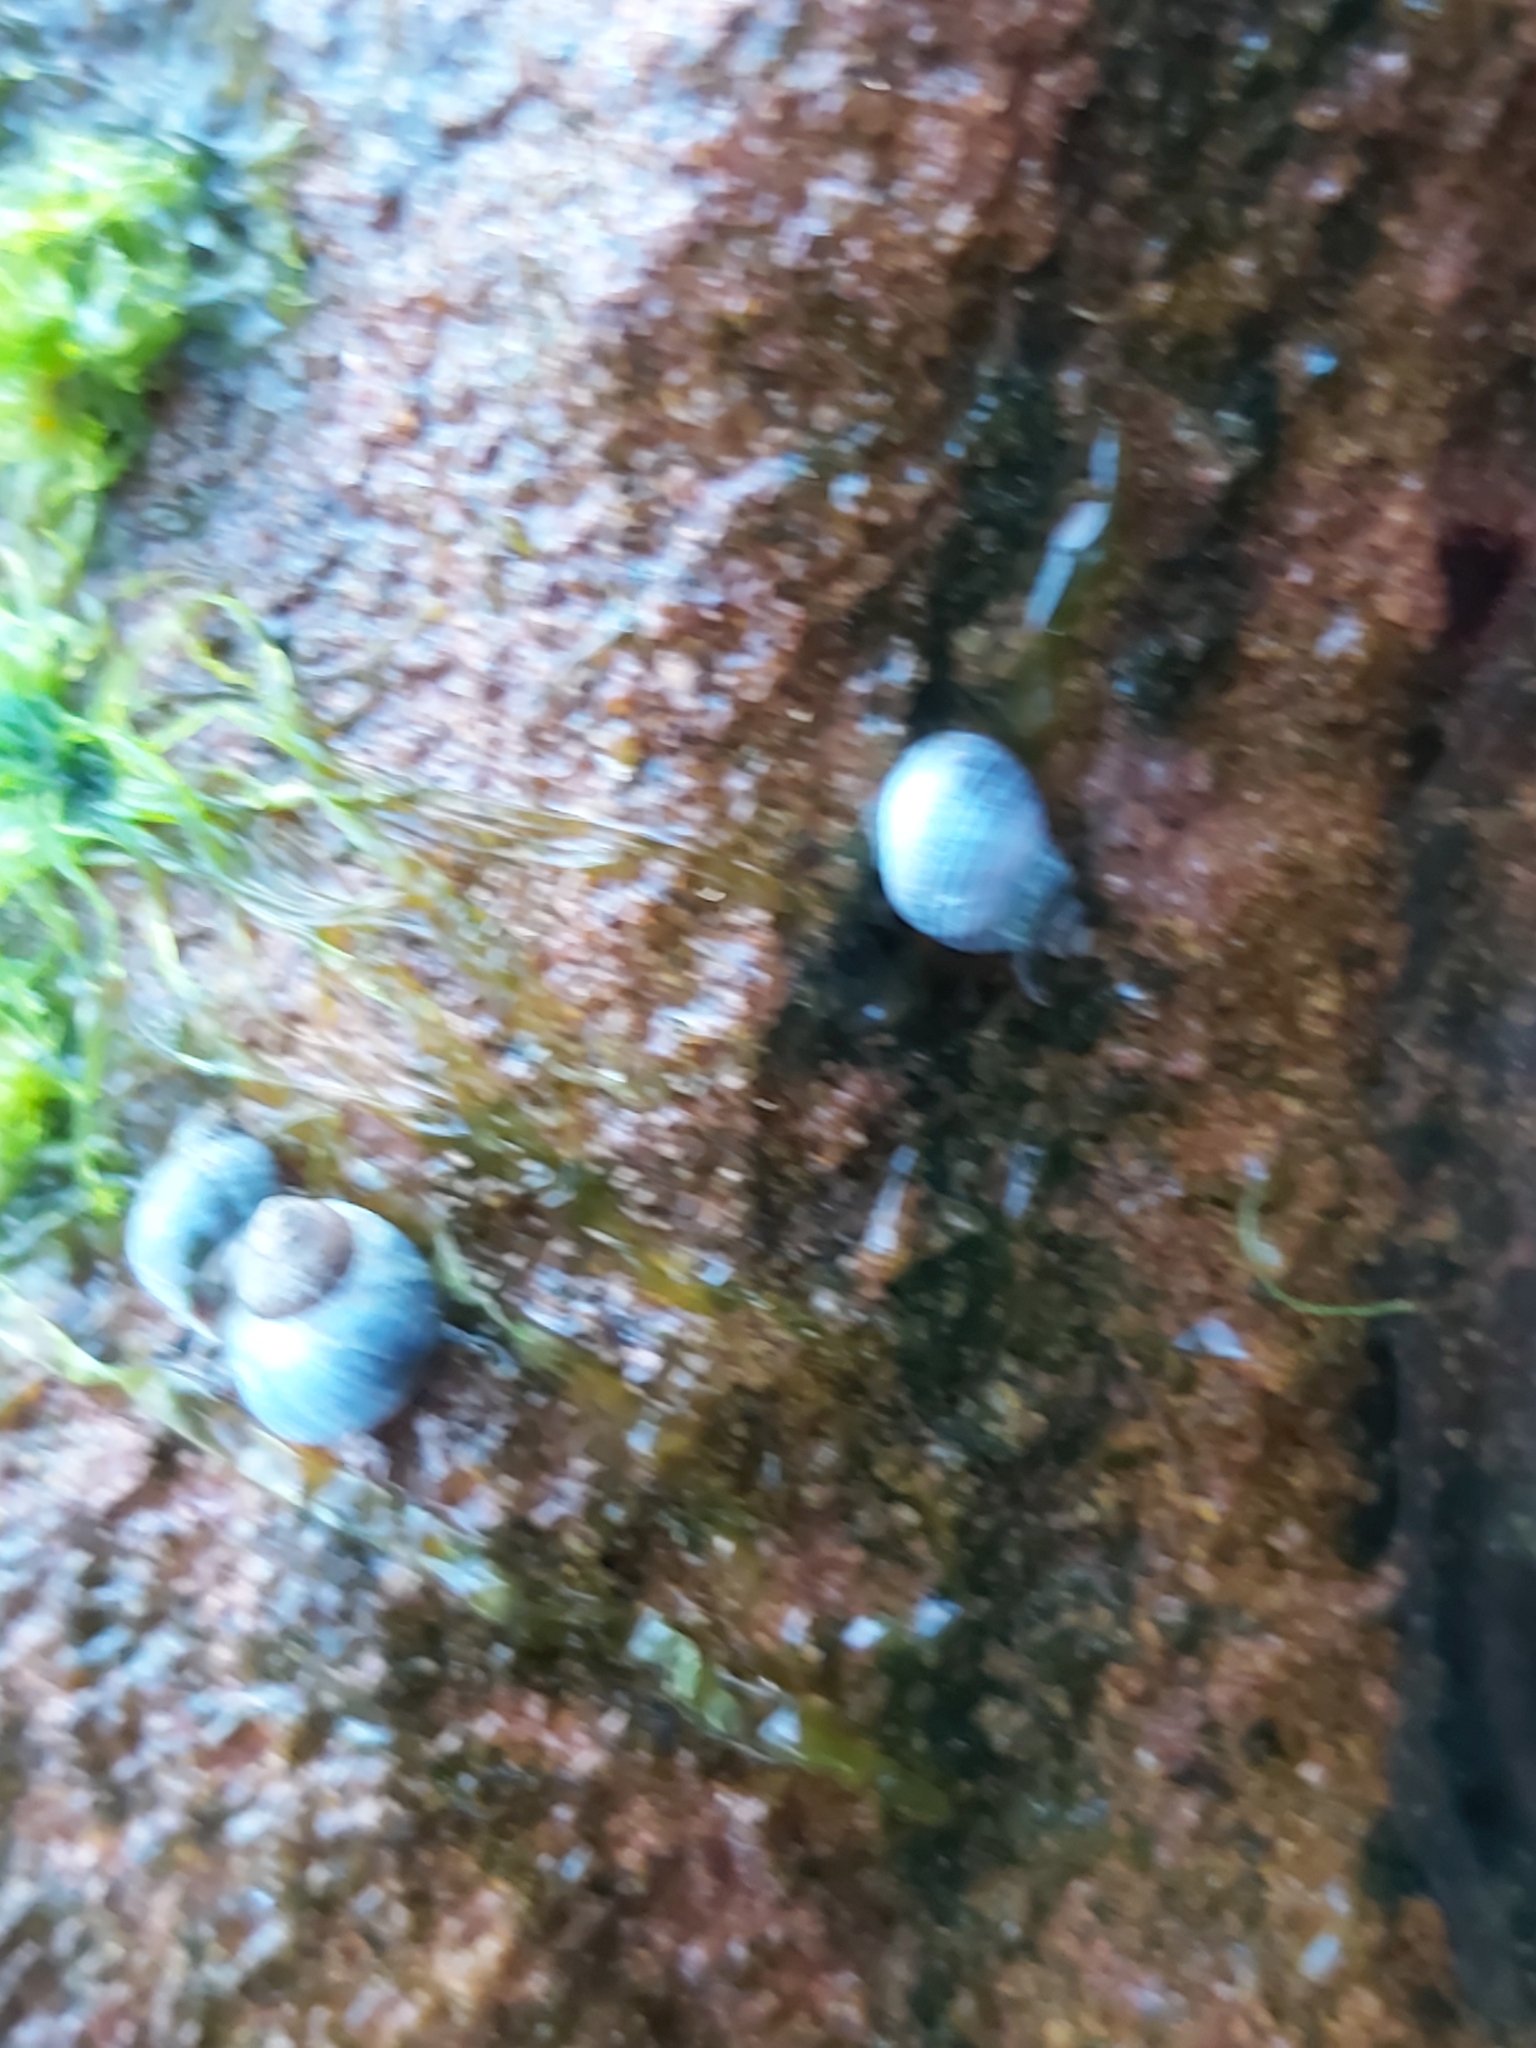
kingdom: Animalia
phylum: Mollusca
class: Gastropoda
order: Littorinimorpha
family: Littorinidae
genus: Austrolittorina
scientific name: Austrolittorina unifasciata
